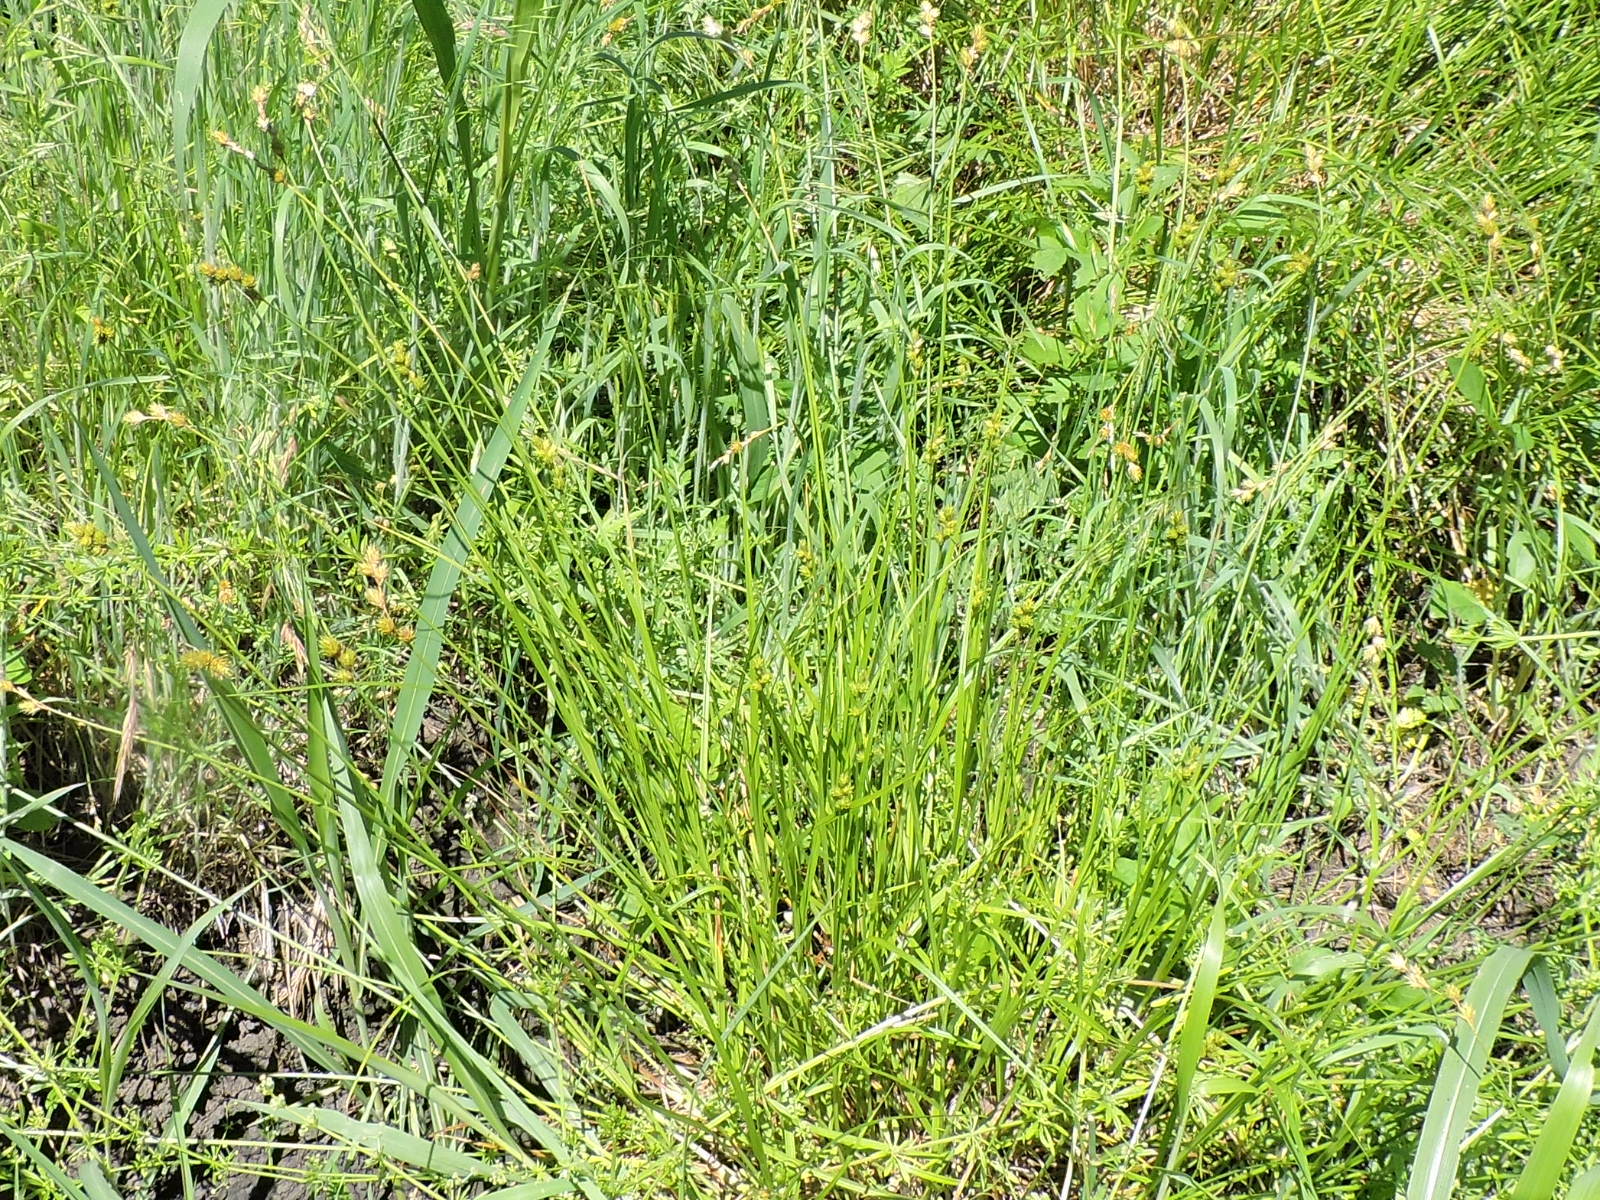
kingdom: Plantae
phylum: Tracheophyta
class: Liliopsida
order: Poales
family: Cyperaceae
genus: Carex
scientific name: Carex tetrastachya
